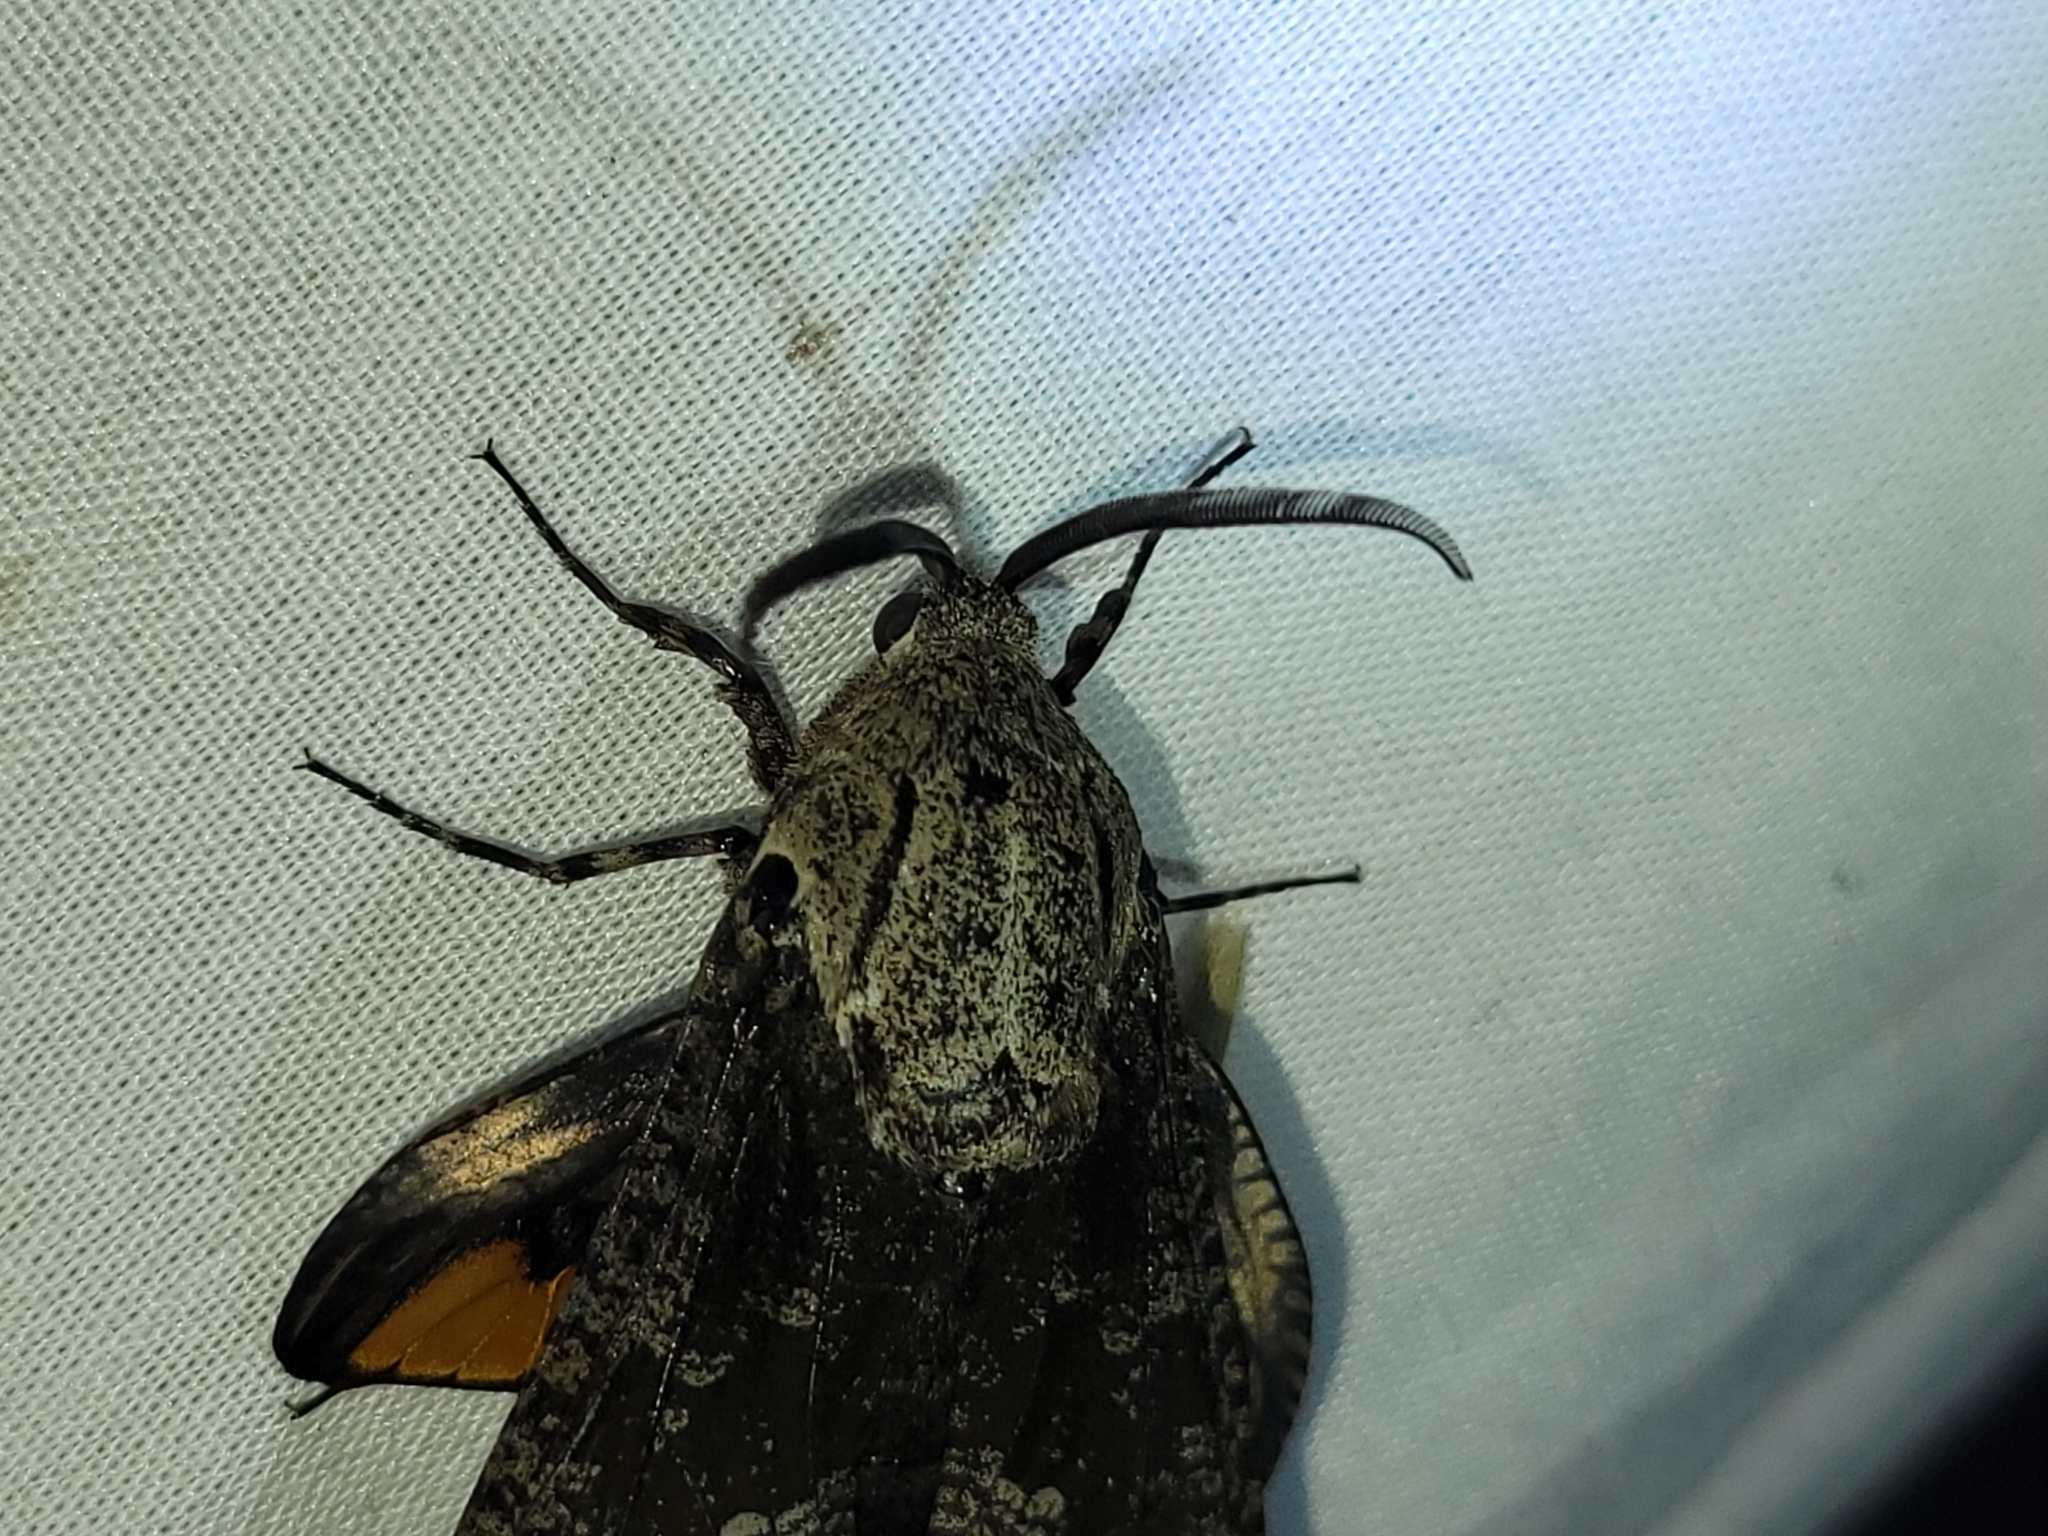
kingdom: Animalia
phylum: Arthropoda
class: Insecta
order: Lepidoptera
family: Cossidae
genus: Prionoxystus
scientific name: Prionoxystus robiniae
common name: Carpenterworm
